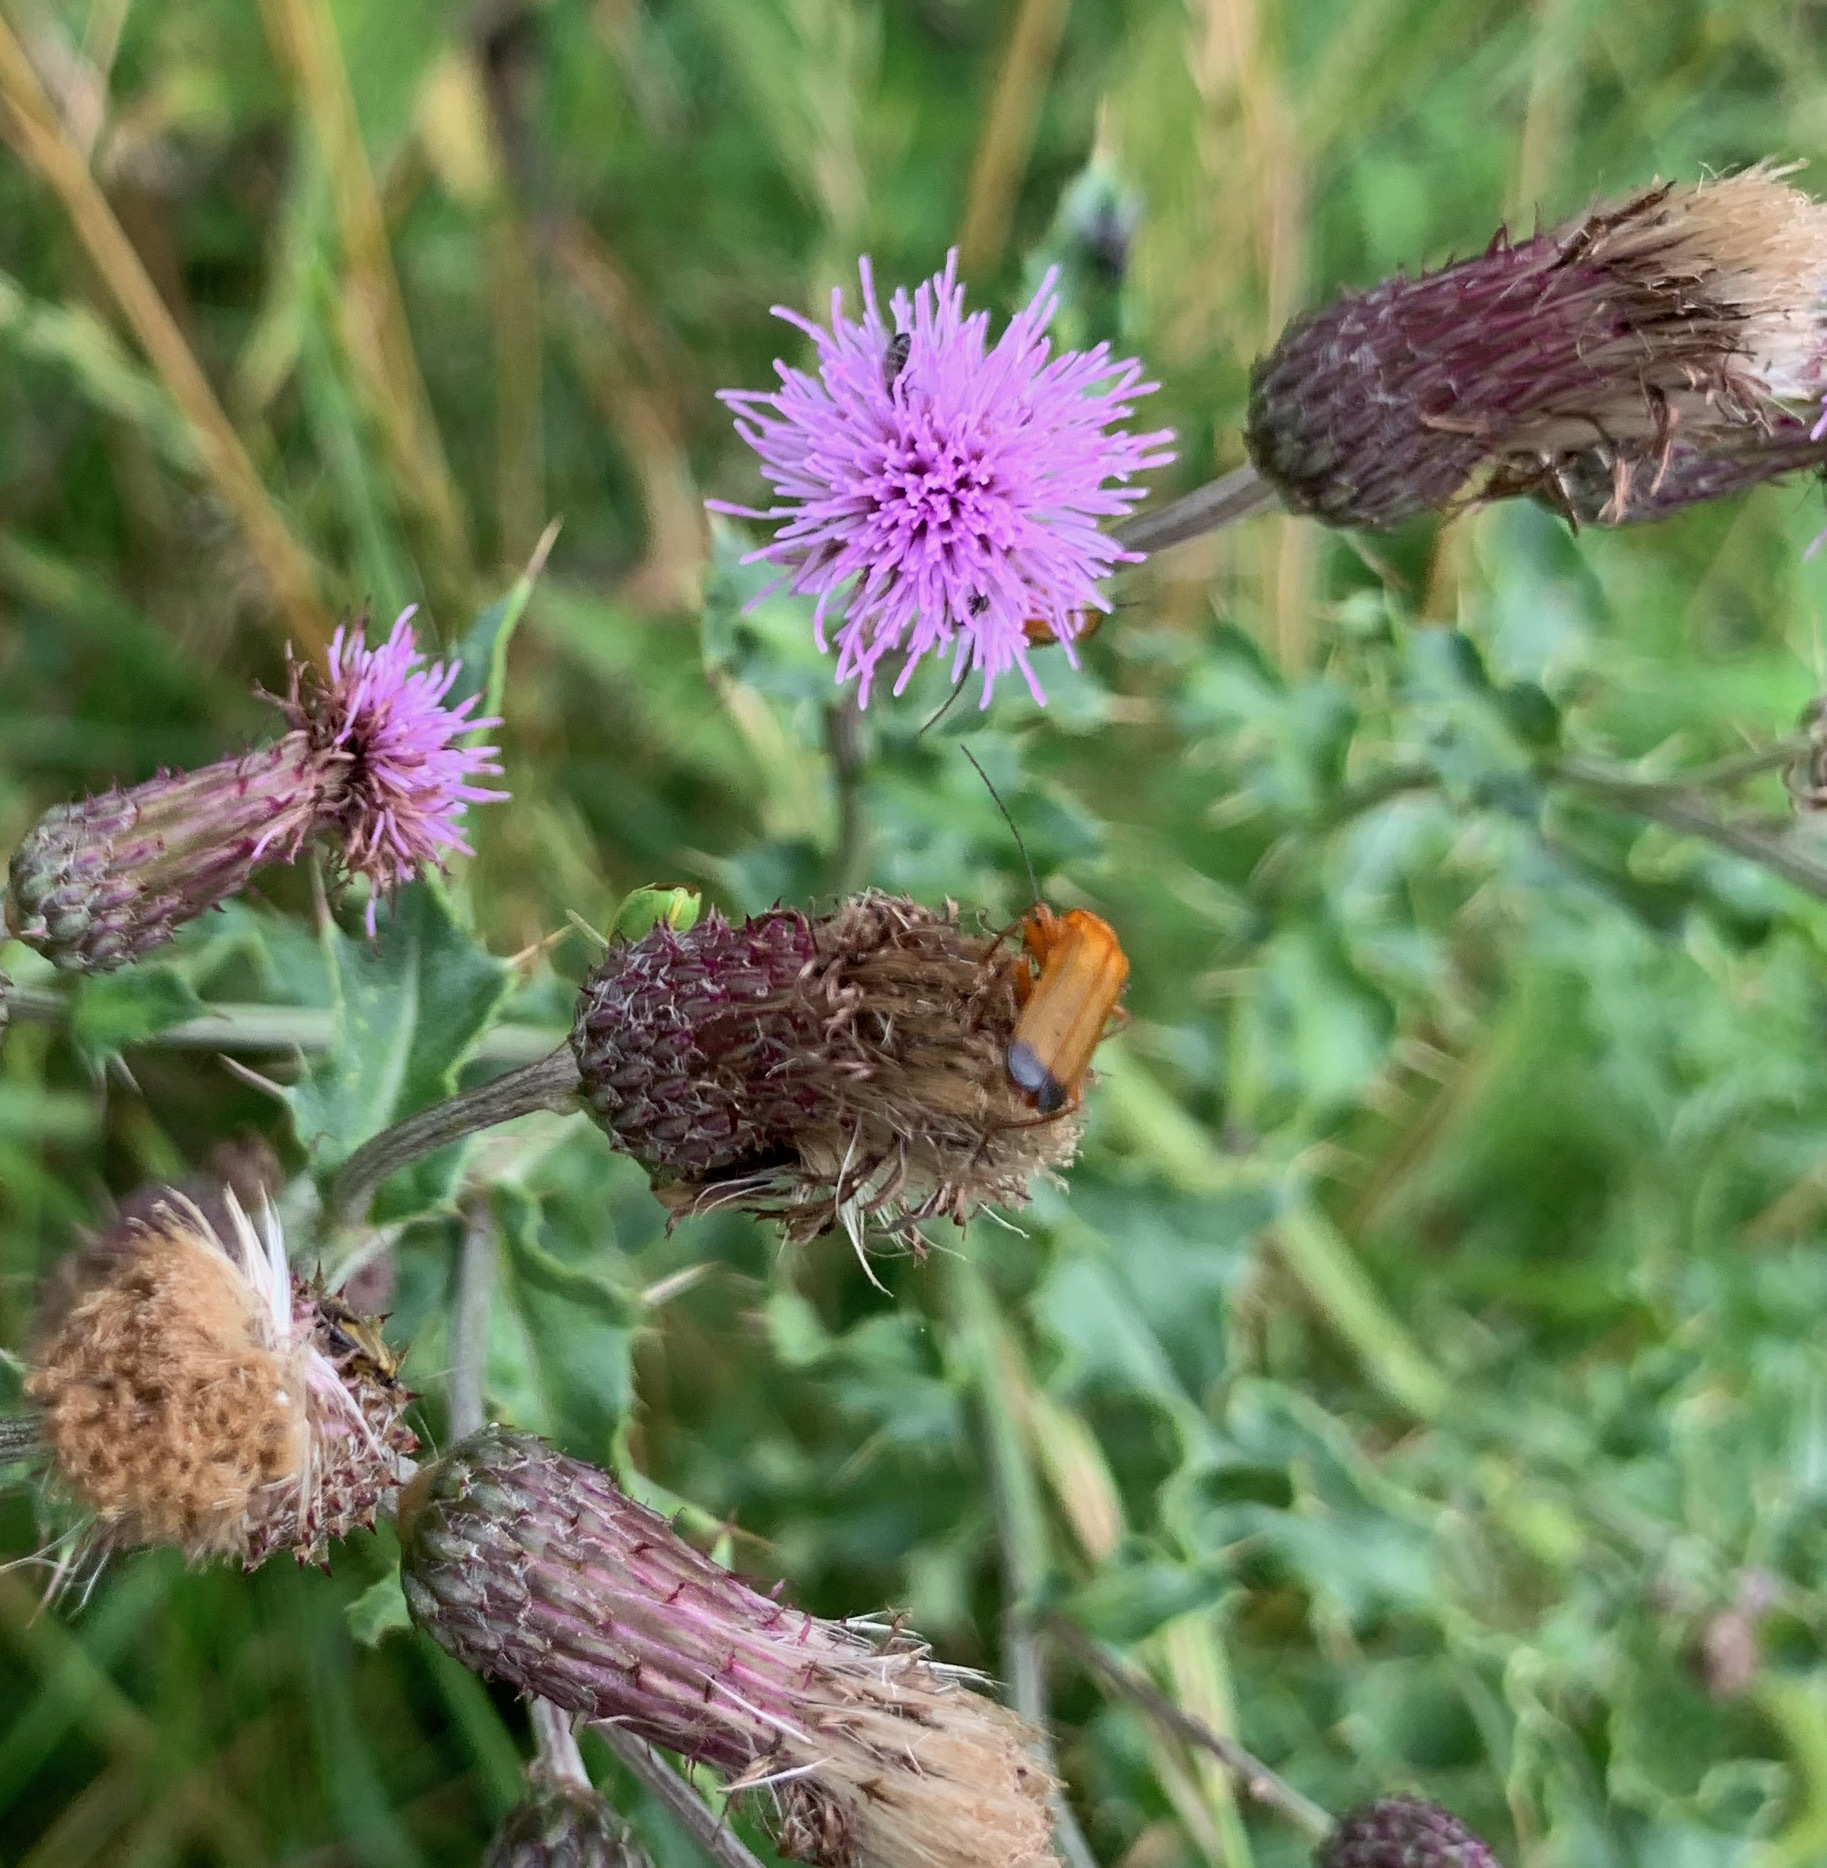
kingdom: Animalia
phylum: Arthropoda
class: Insecta
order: Coleoptera
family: Cantharidae
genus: Rhagonycha
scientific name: Rhagonycha fulva
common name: Common red soldier beetle
